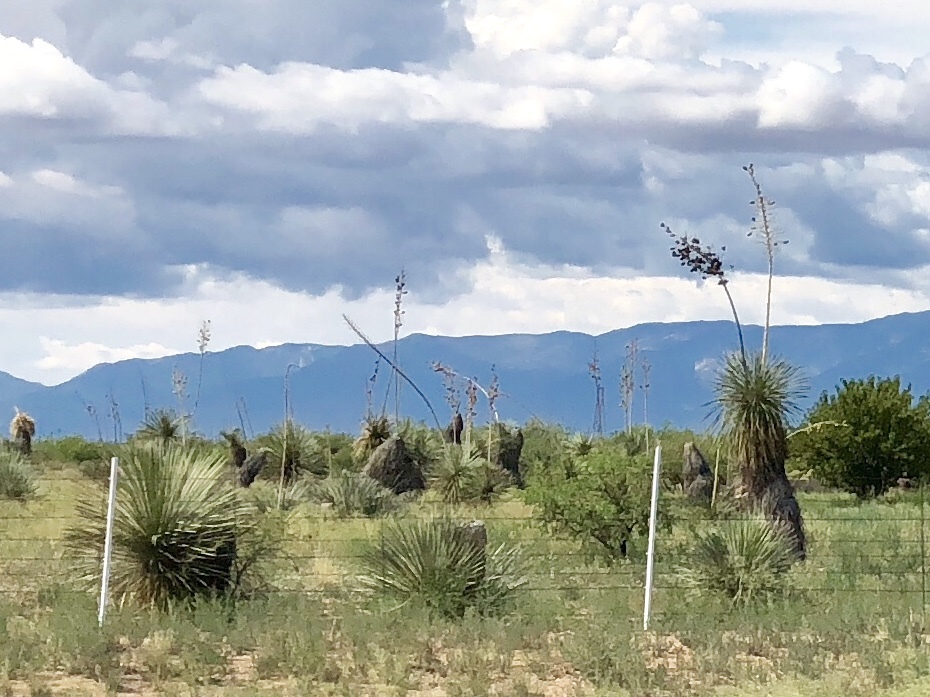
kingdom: Plantae
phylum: Tracheophyta
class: Liliopsida
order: Asparagales
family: Asparagaceae
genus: Yucca
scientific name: Yucca elata
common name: Palmella
